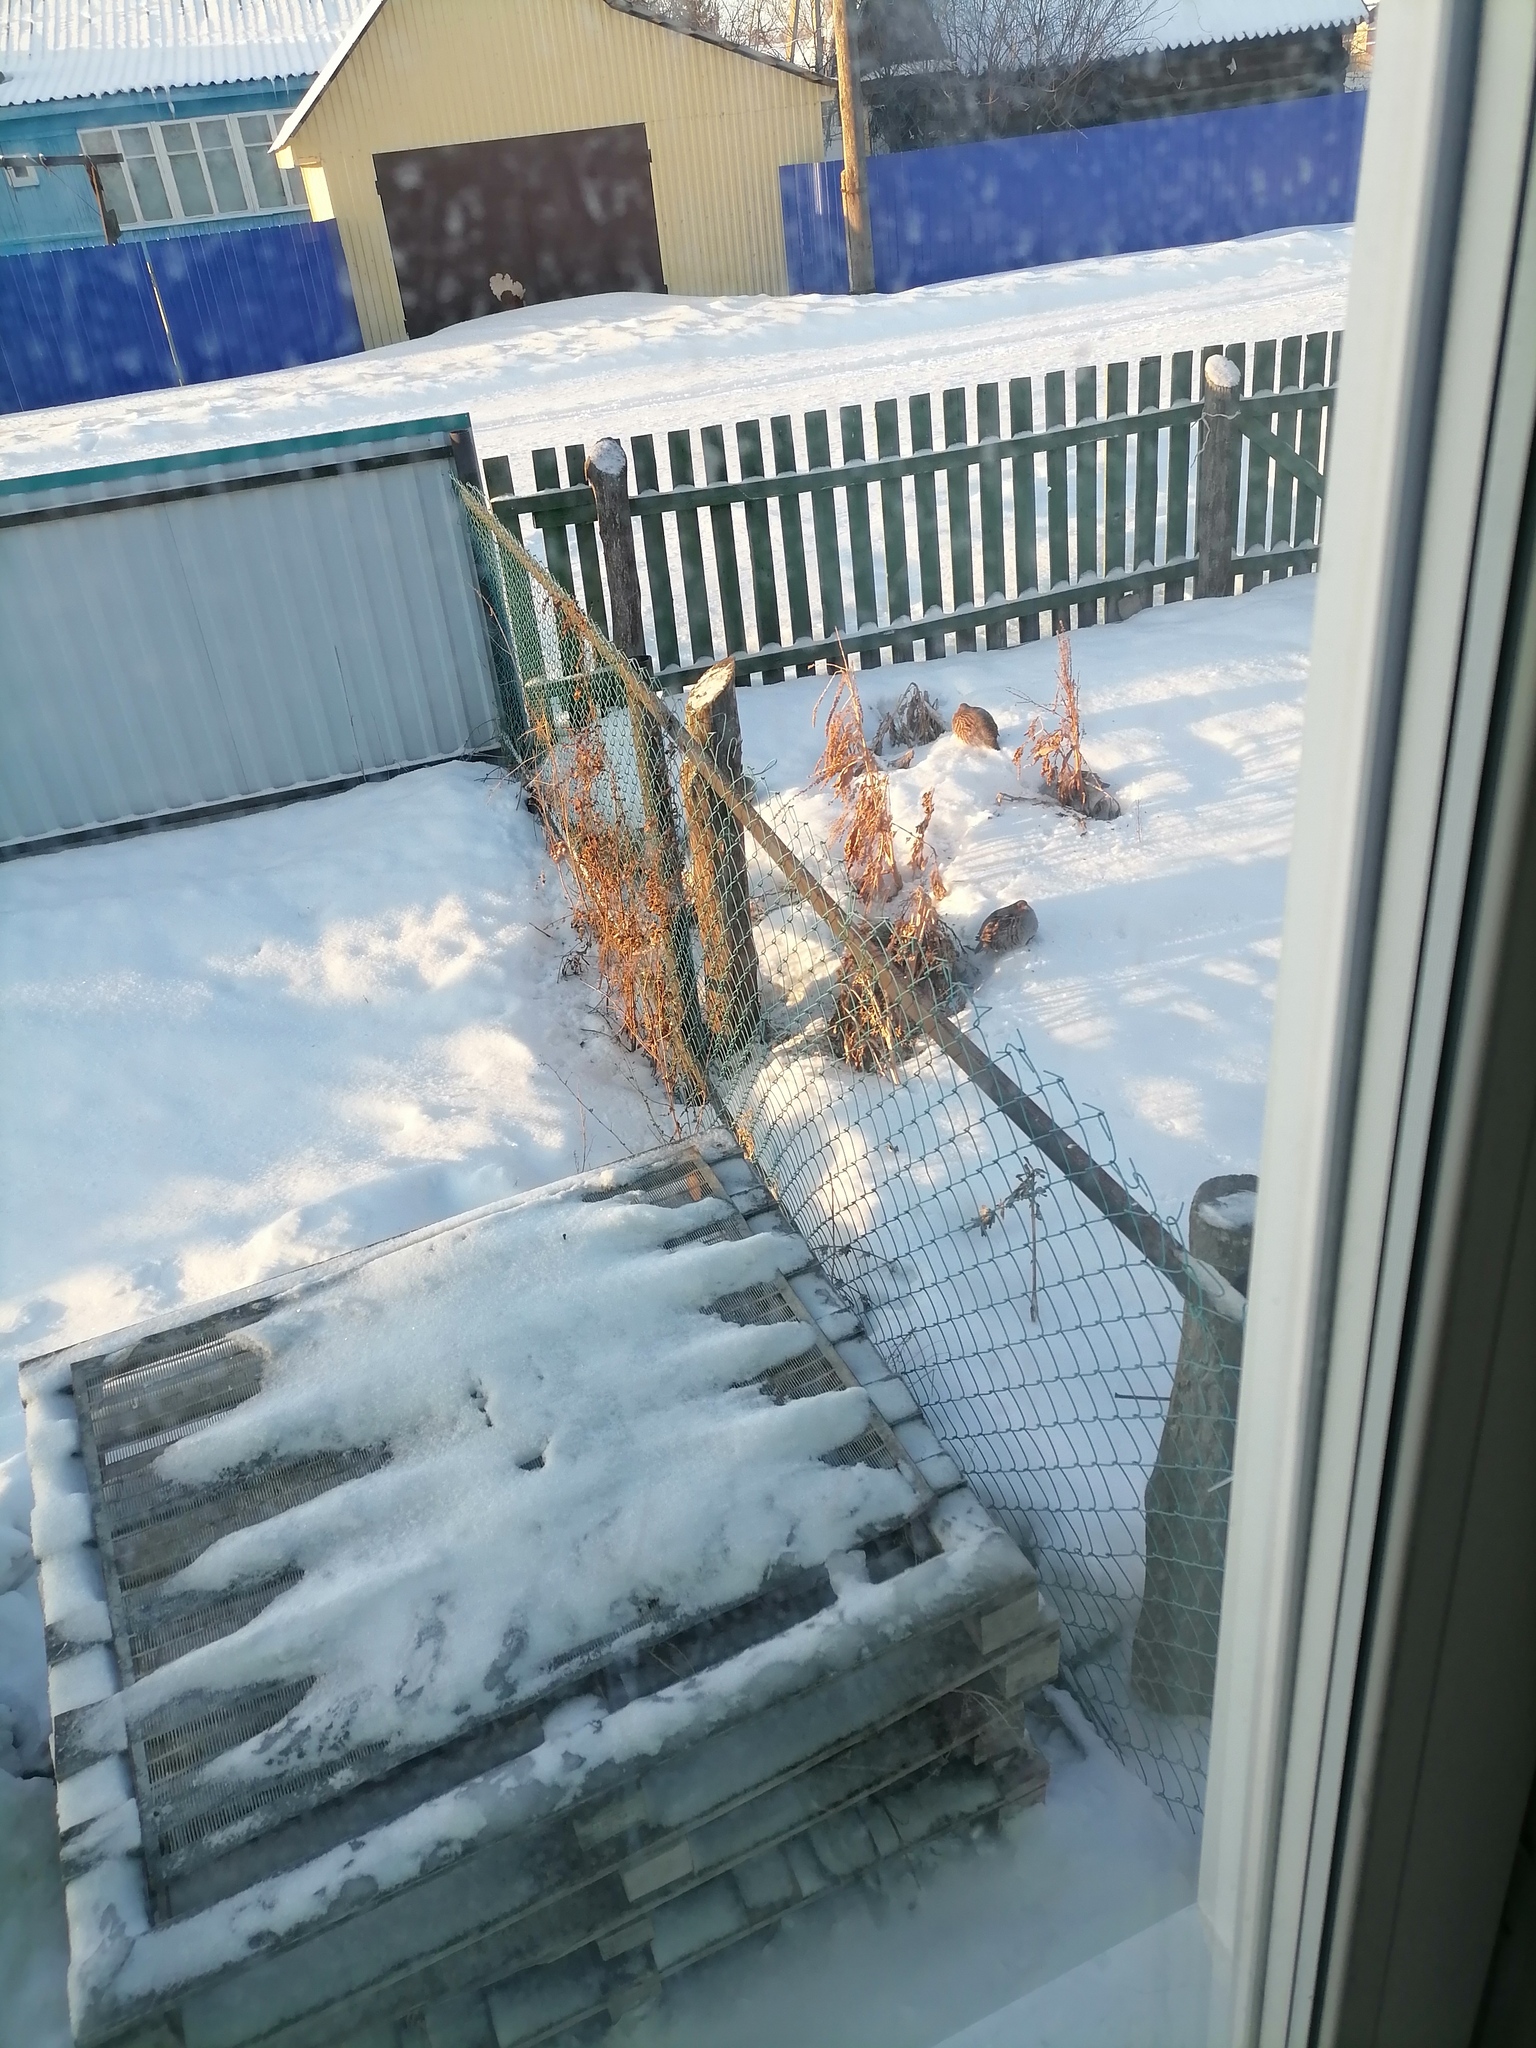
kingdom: Animalia
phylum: Chordata
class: Aves
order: Galliformes
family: Phasianidae
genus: Perdix
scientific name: Perdix perdix
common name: Grey partridge
